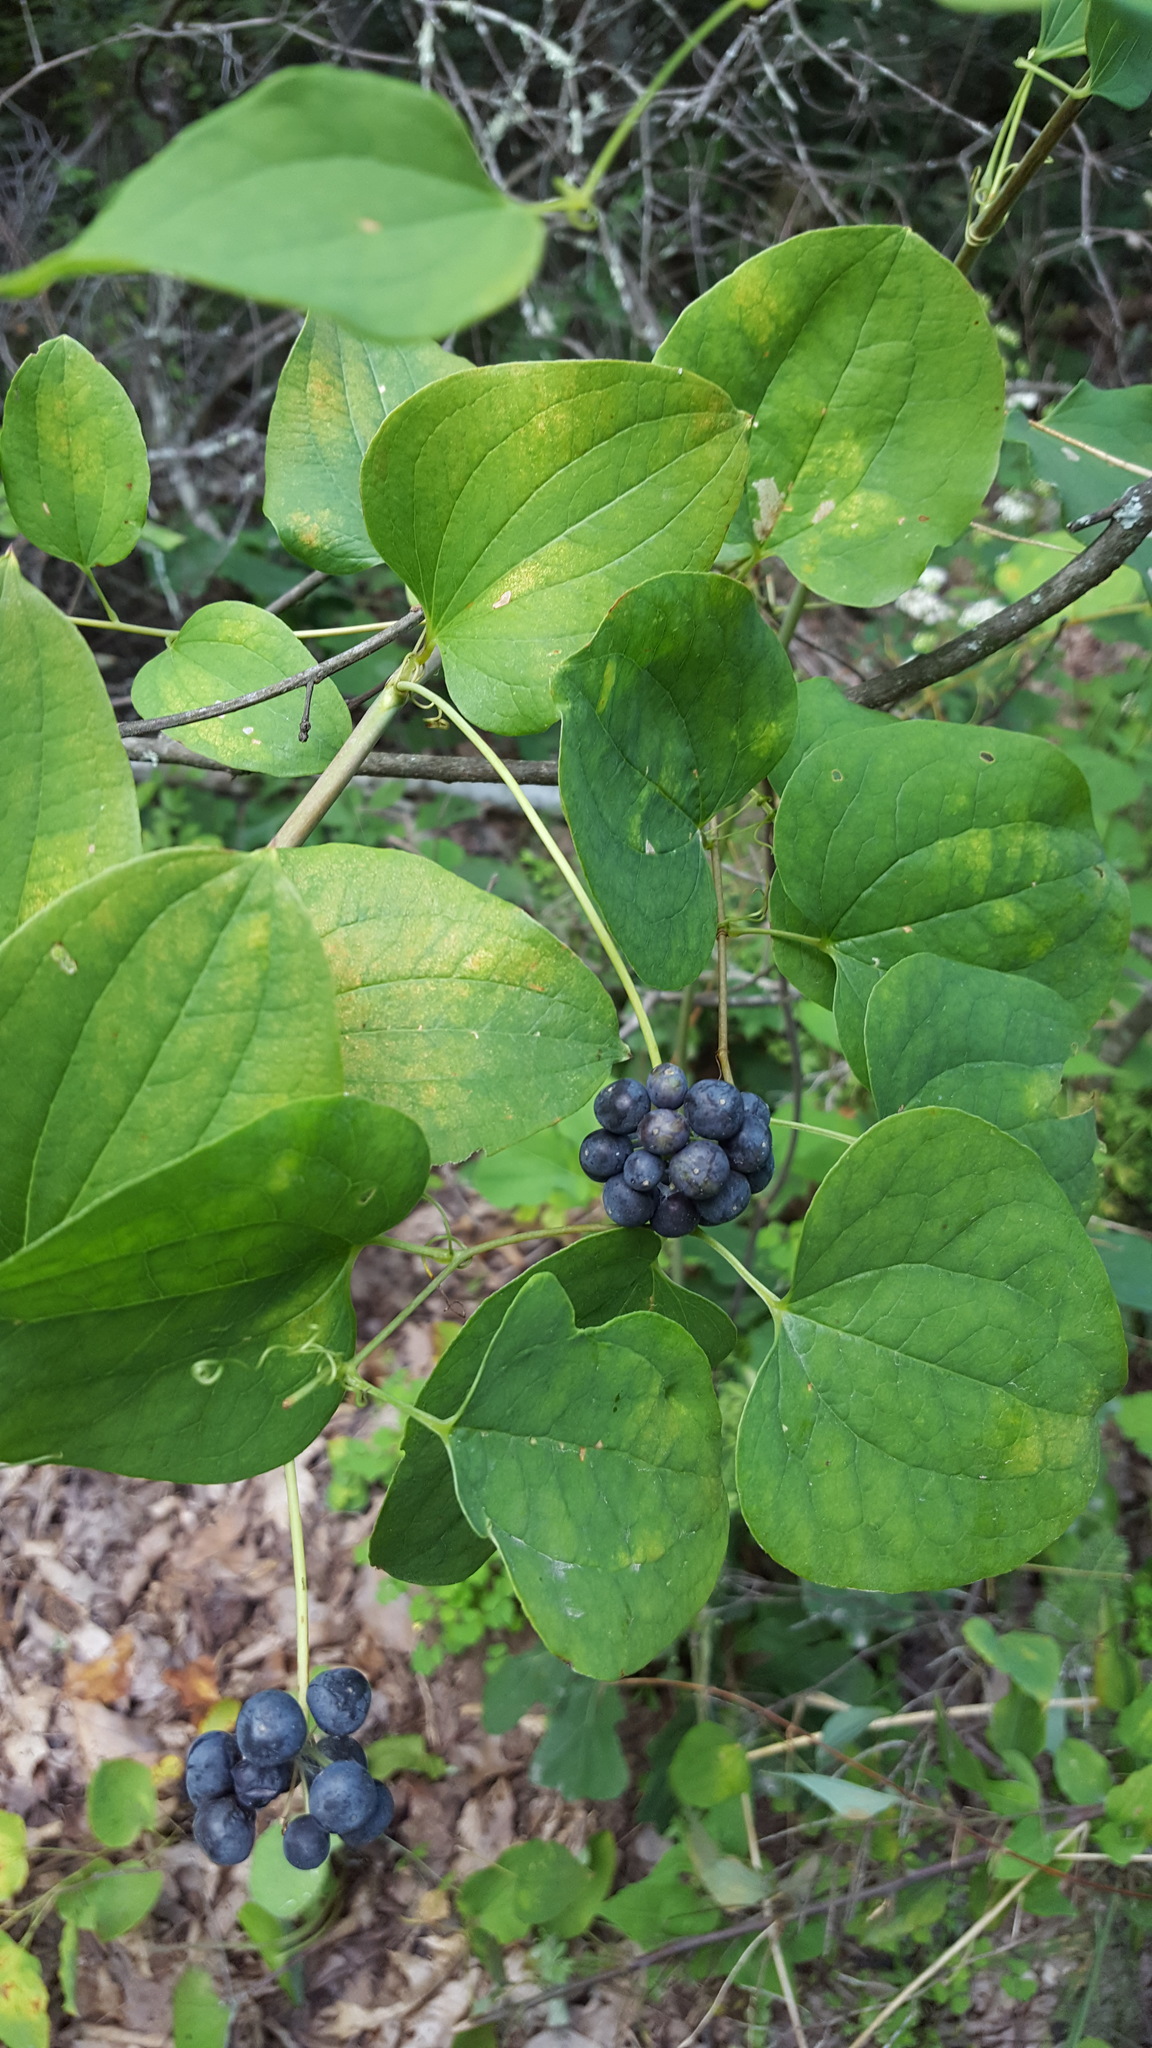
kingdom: Plantae
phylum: Tracheophyta
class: Liliopsida
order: Liliales
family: Smilacaceae
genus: Smilax
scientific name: Smilax herbacea
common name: Jacob's-ladder
